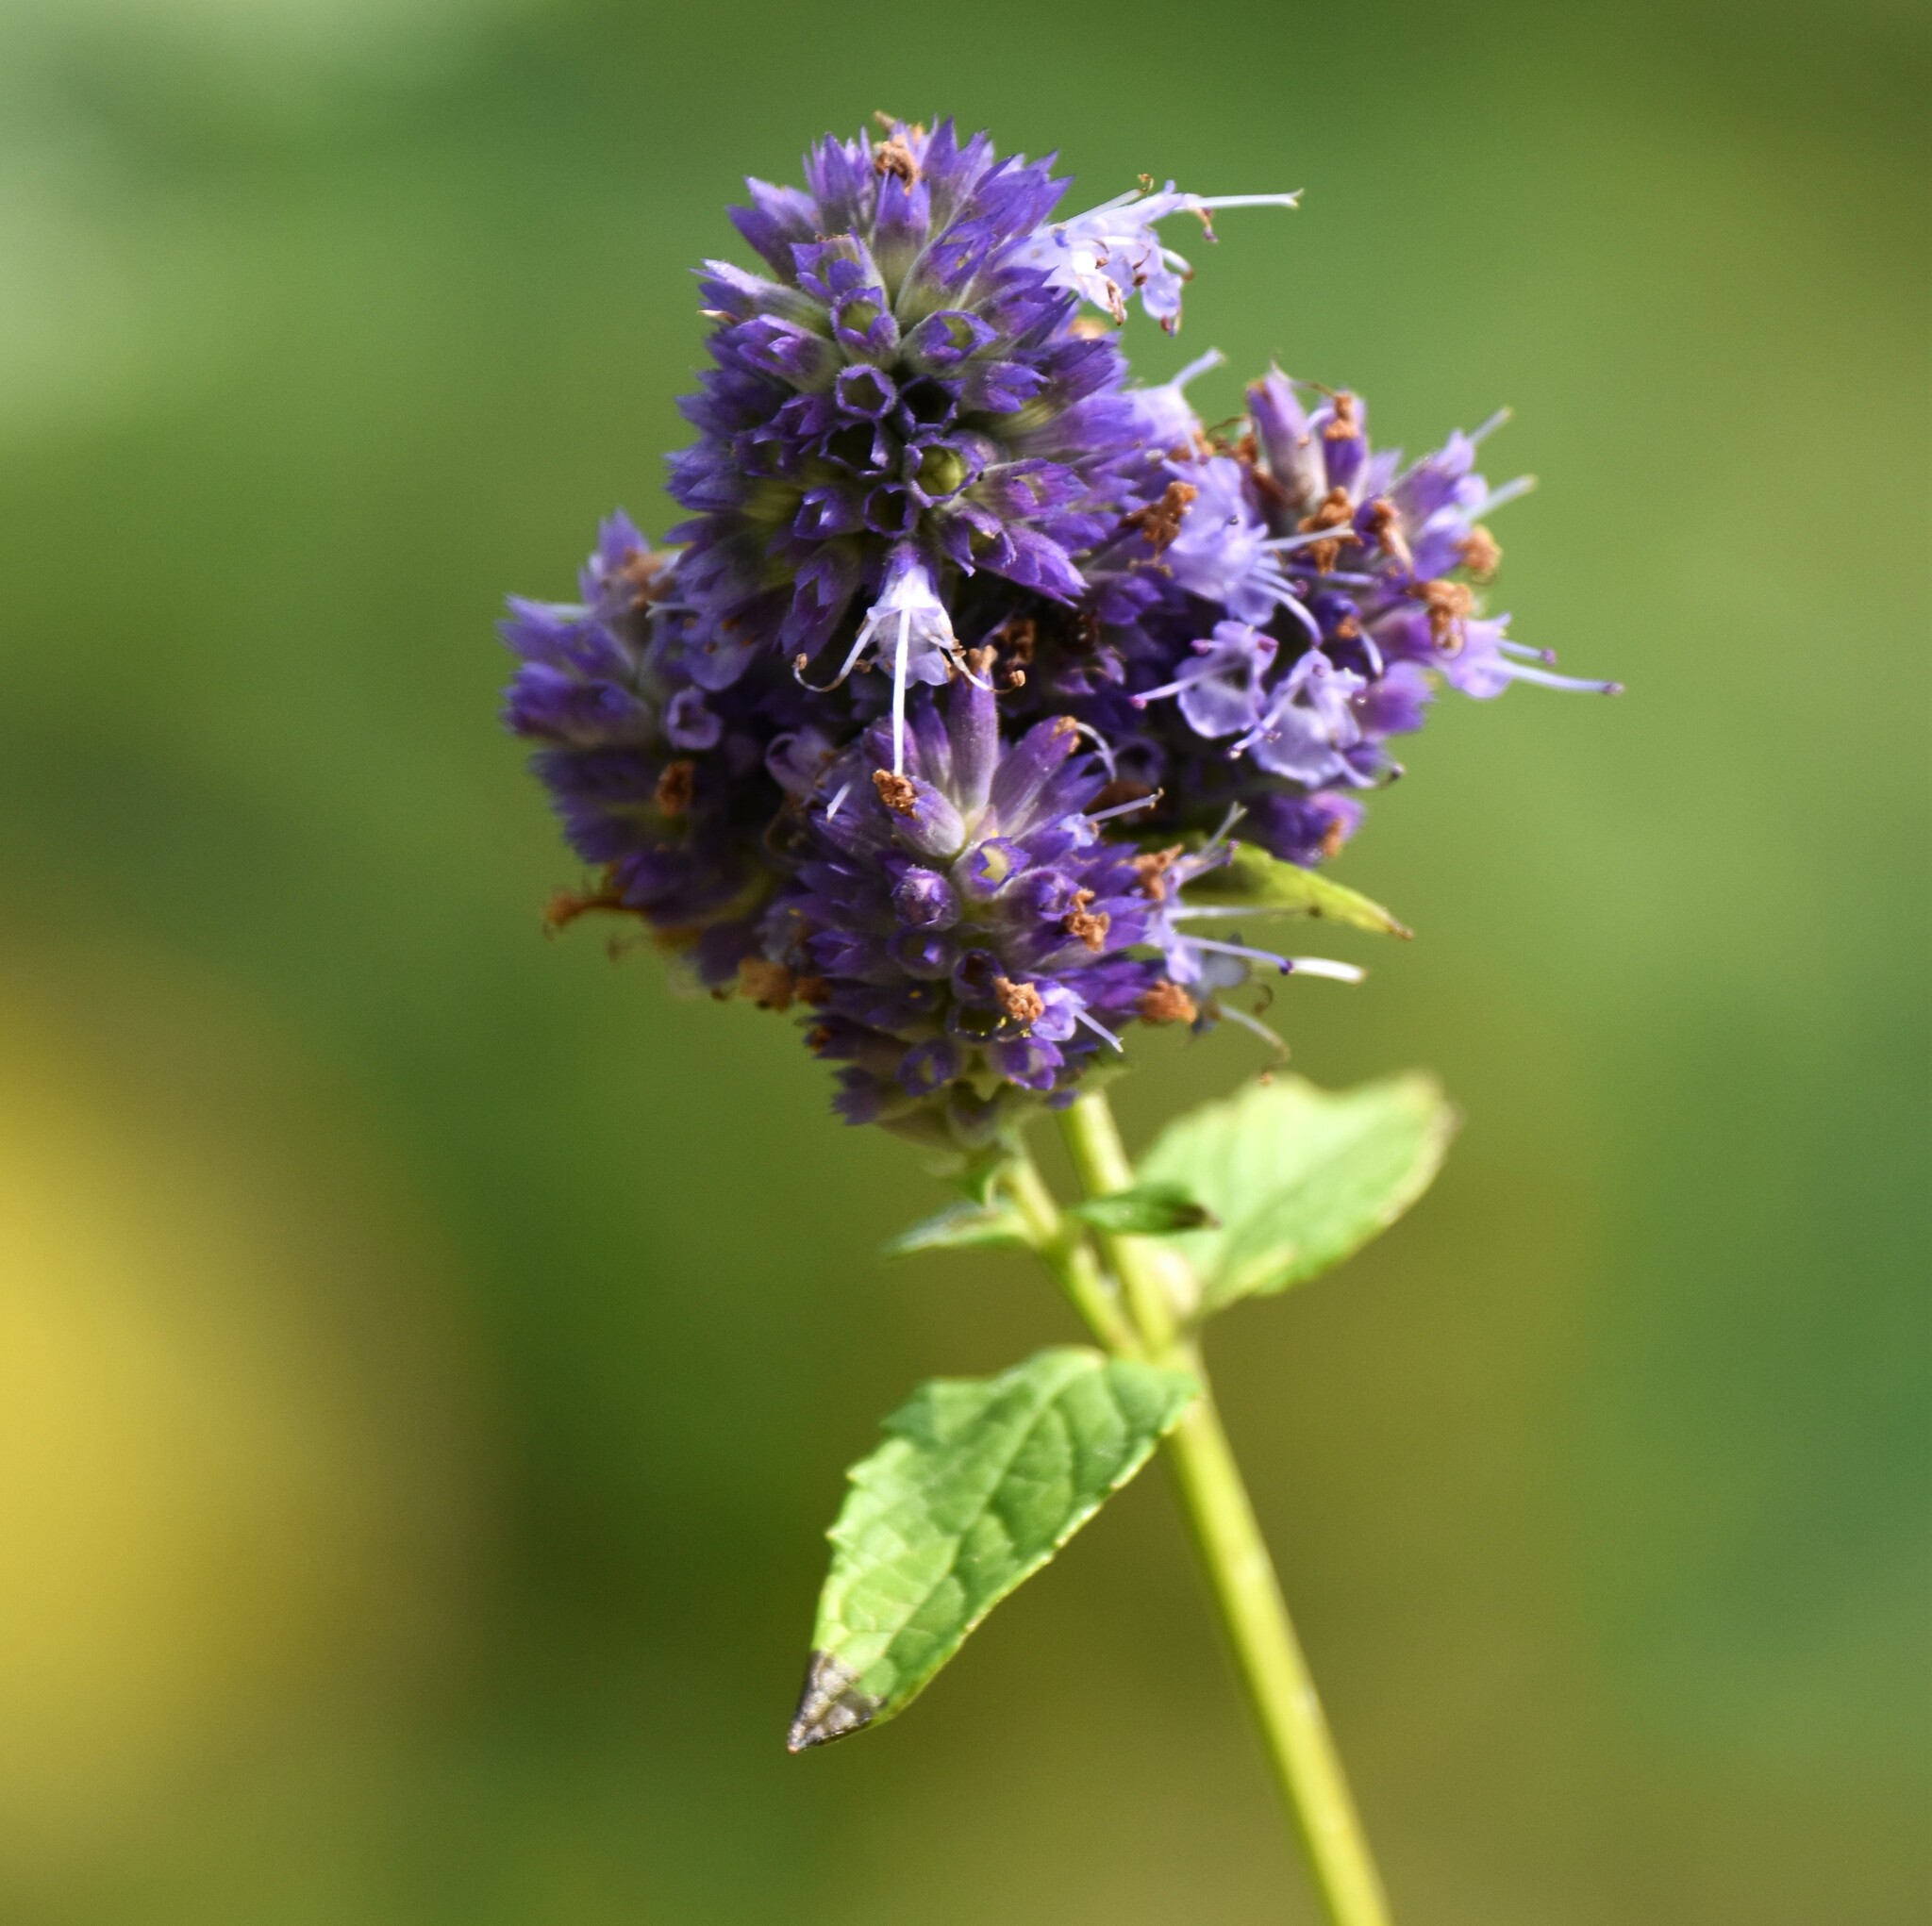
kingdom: Plantae
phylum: Tracheophyta
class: Magnoliopsida
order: Lamiales
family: Lamiaceae
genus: Agastache
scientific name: Agastache foeniculum
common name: Anise hyssop
